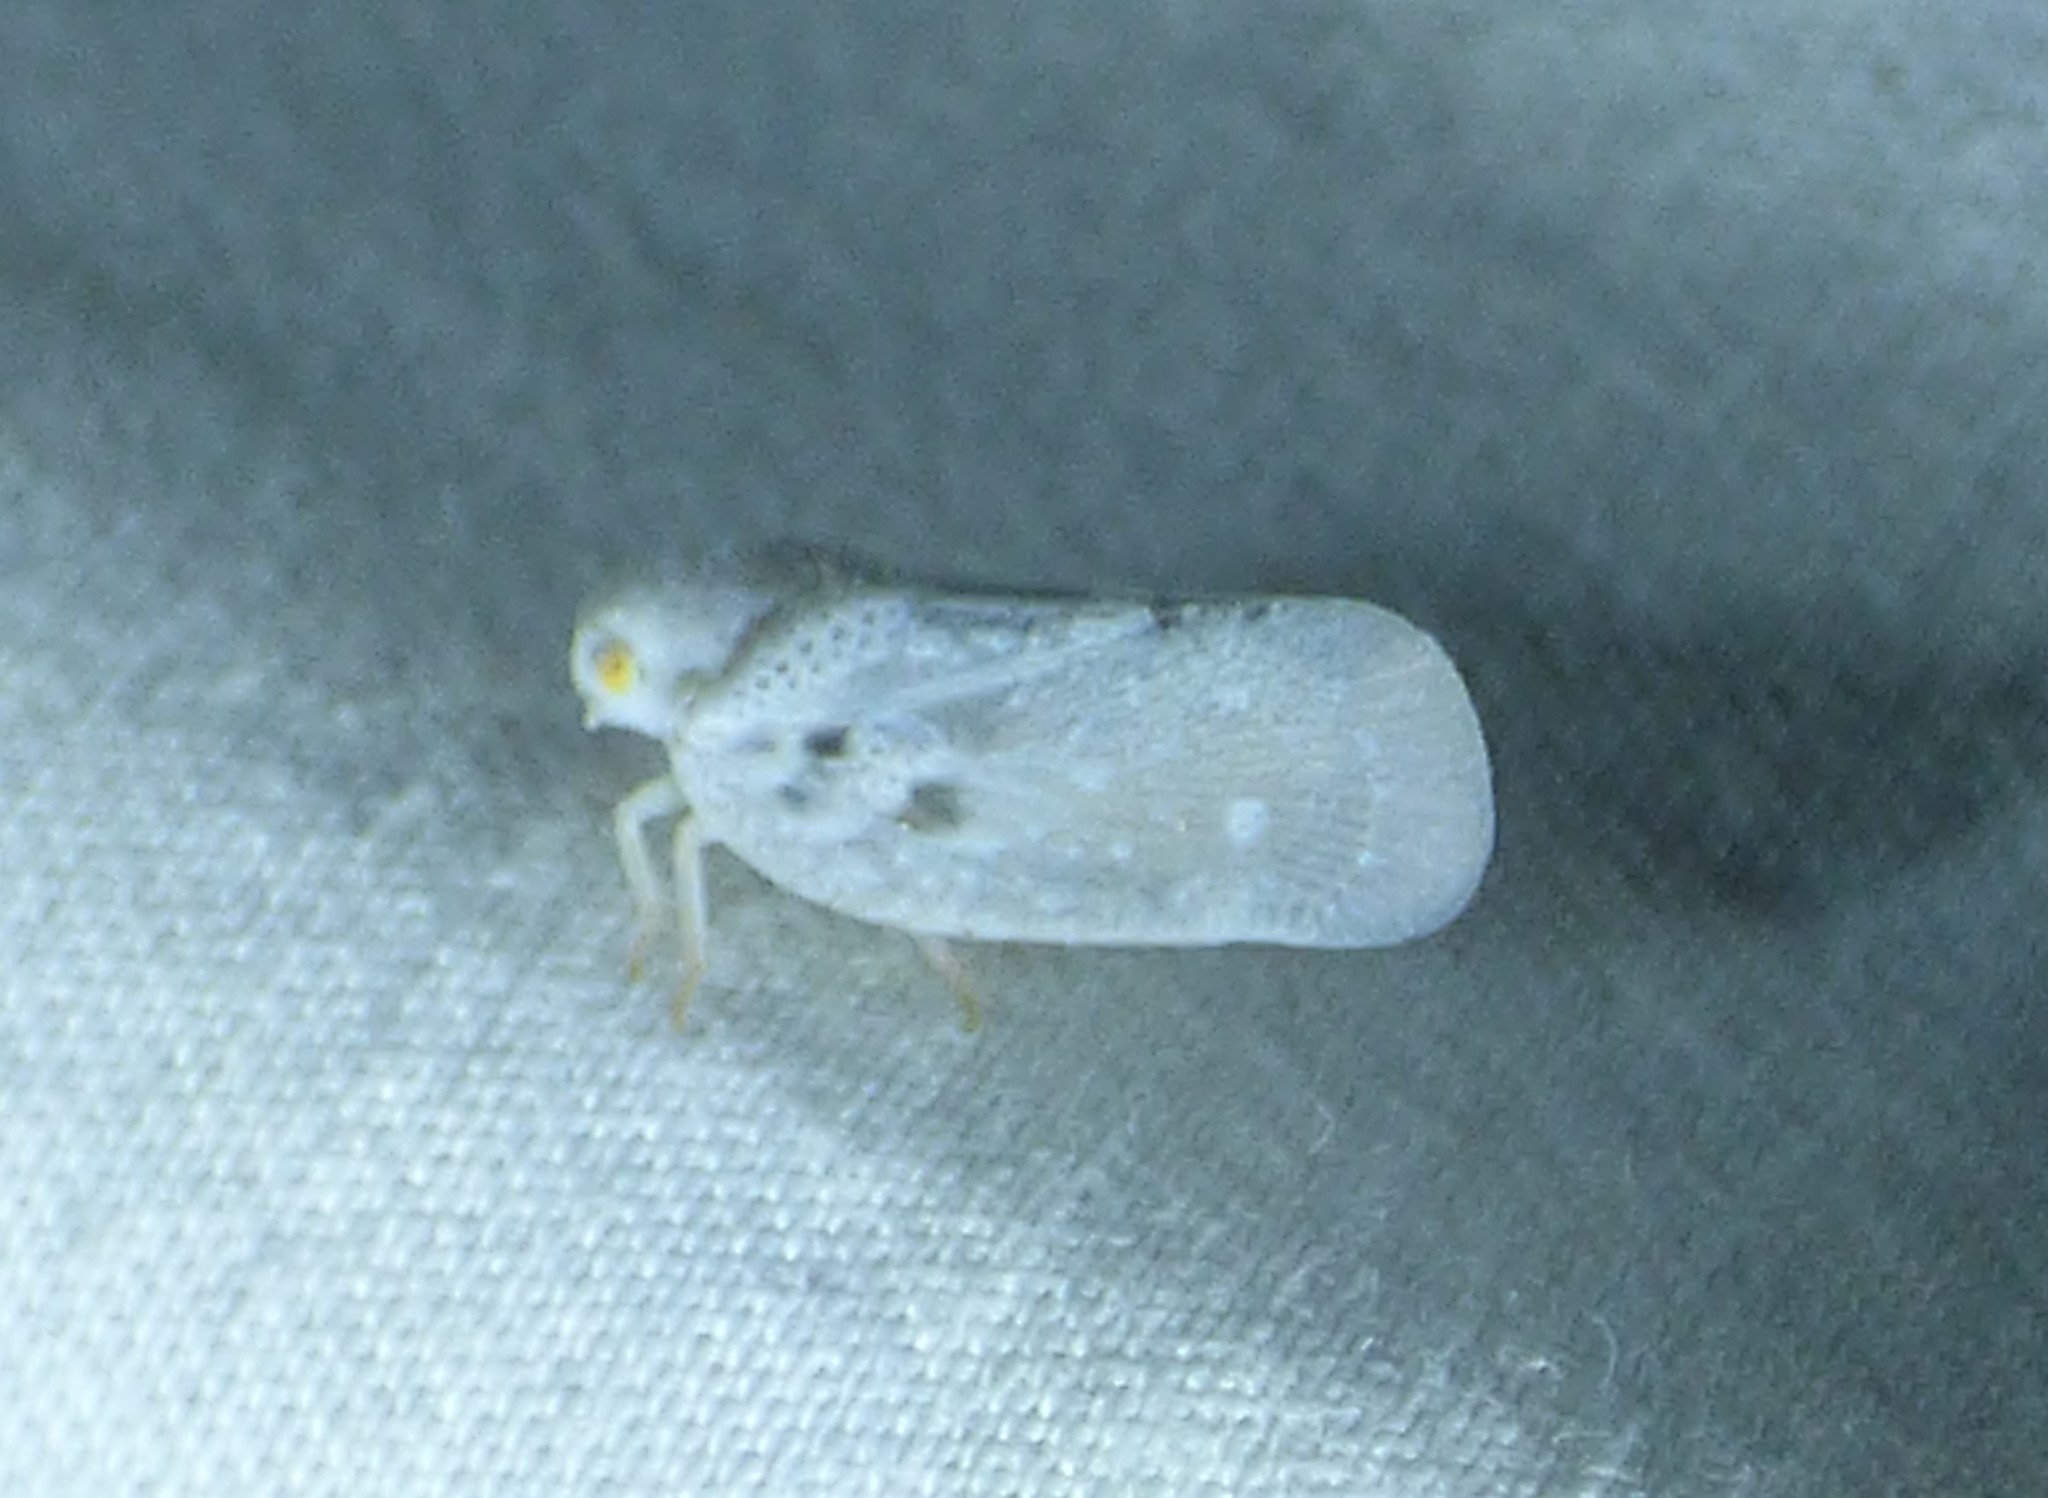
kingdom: Animalia
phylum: Arthropoda
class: Insecta
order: Hemiptera
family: Flatidae
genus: Metcalfa
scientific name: Metcalfa pruinosa
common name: Citrus flatid planthopper
